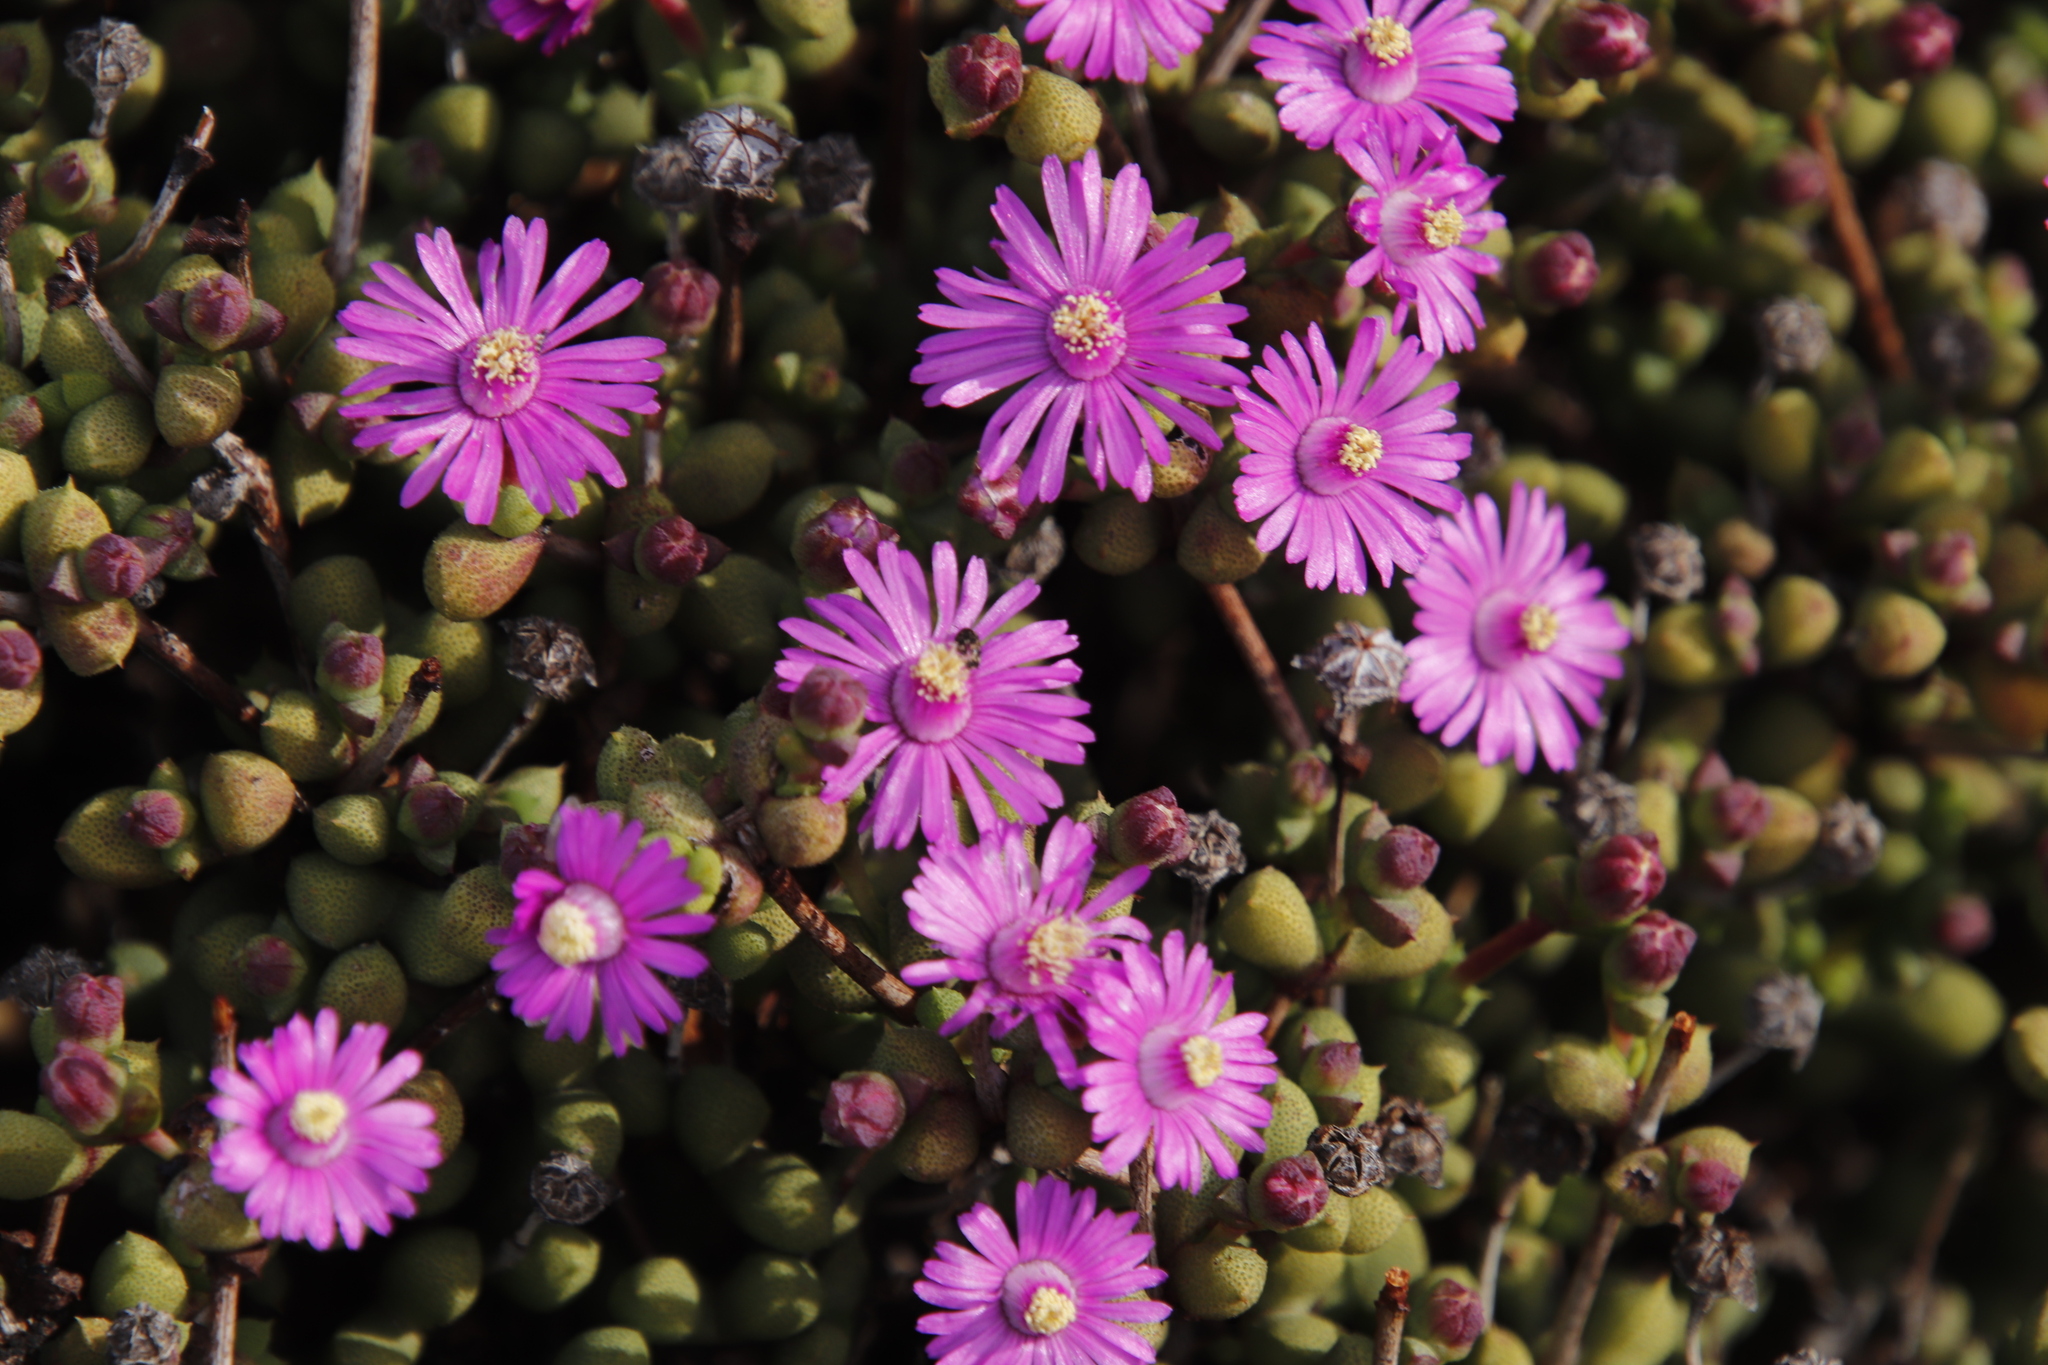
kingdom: Plantae
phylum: Tracheophyta
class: Magnoliopsida
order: Caryophyllales
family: Aizoaceae
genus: Schlechteranthus
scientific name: Schlechteranthus subglobosus
